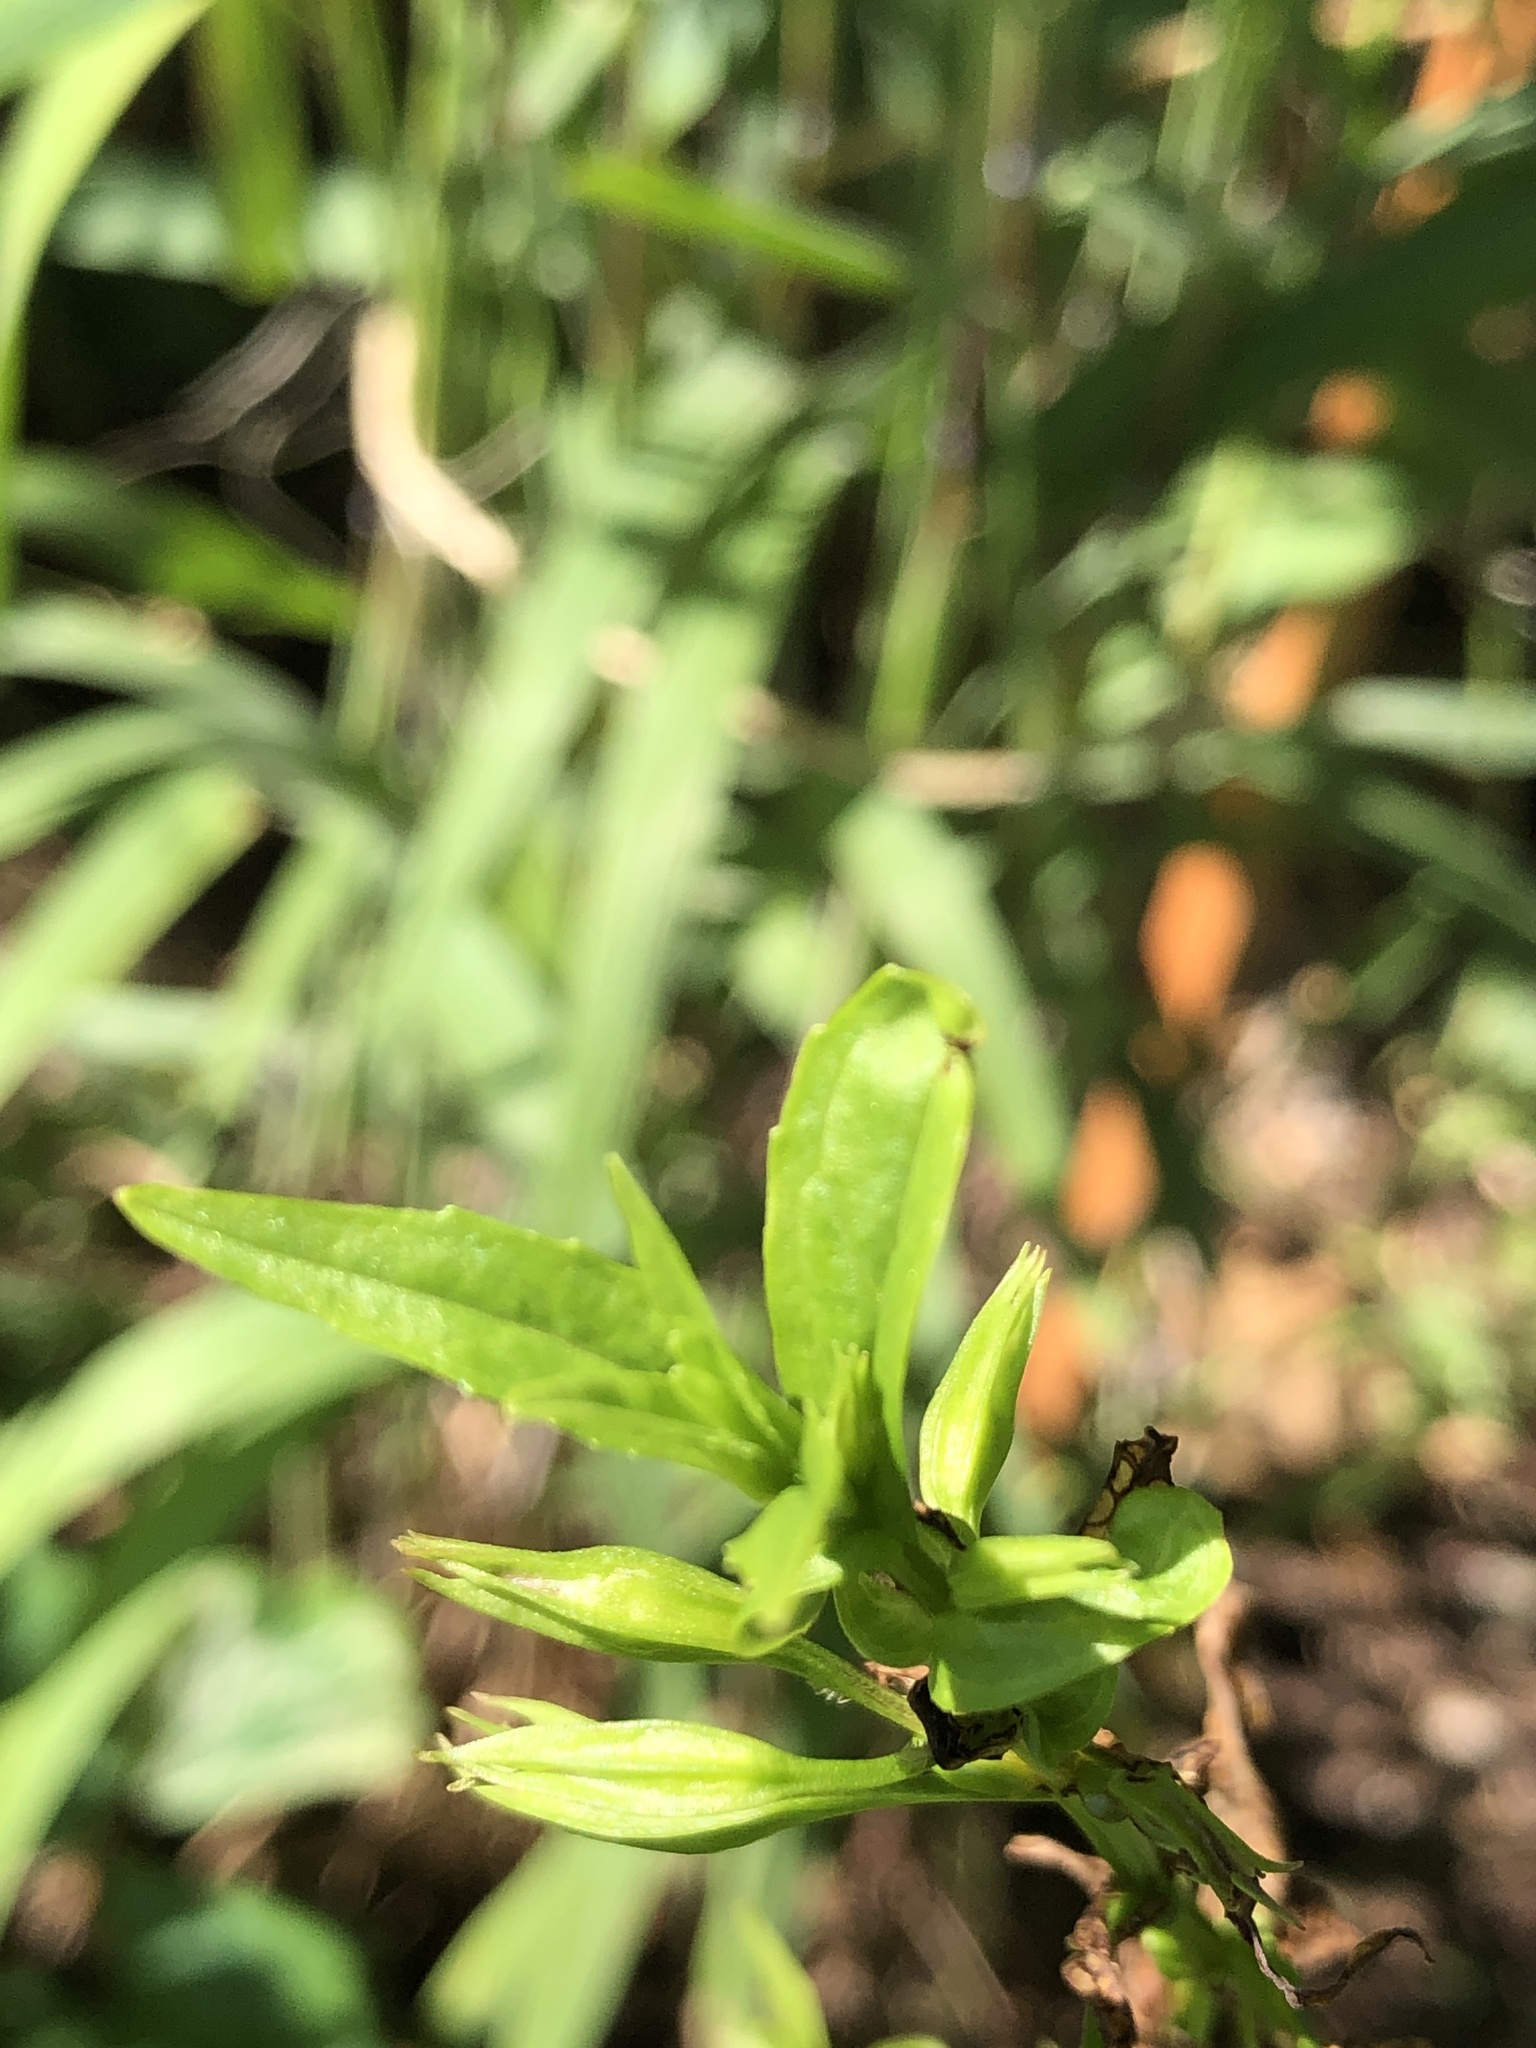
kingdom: Plantae
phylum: Tracheophyta
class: Magnoliopsida
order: Lamiales
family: Phrymaceae
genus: Mimulus
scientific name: Mimulus ringens
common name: Allegheny monkeyflower
